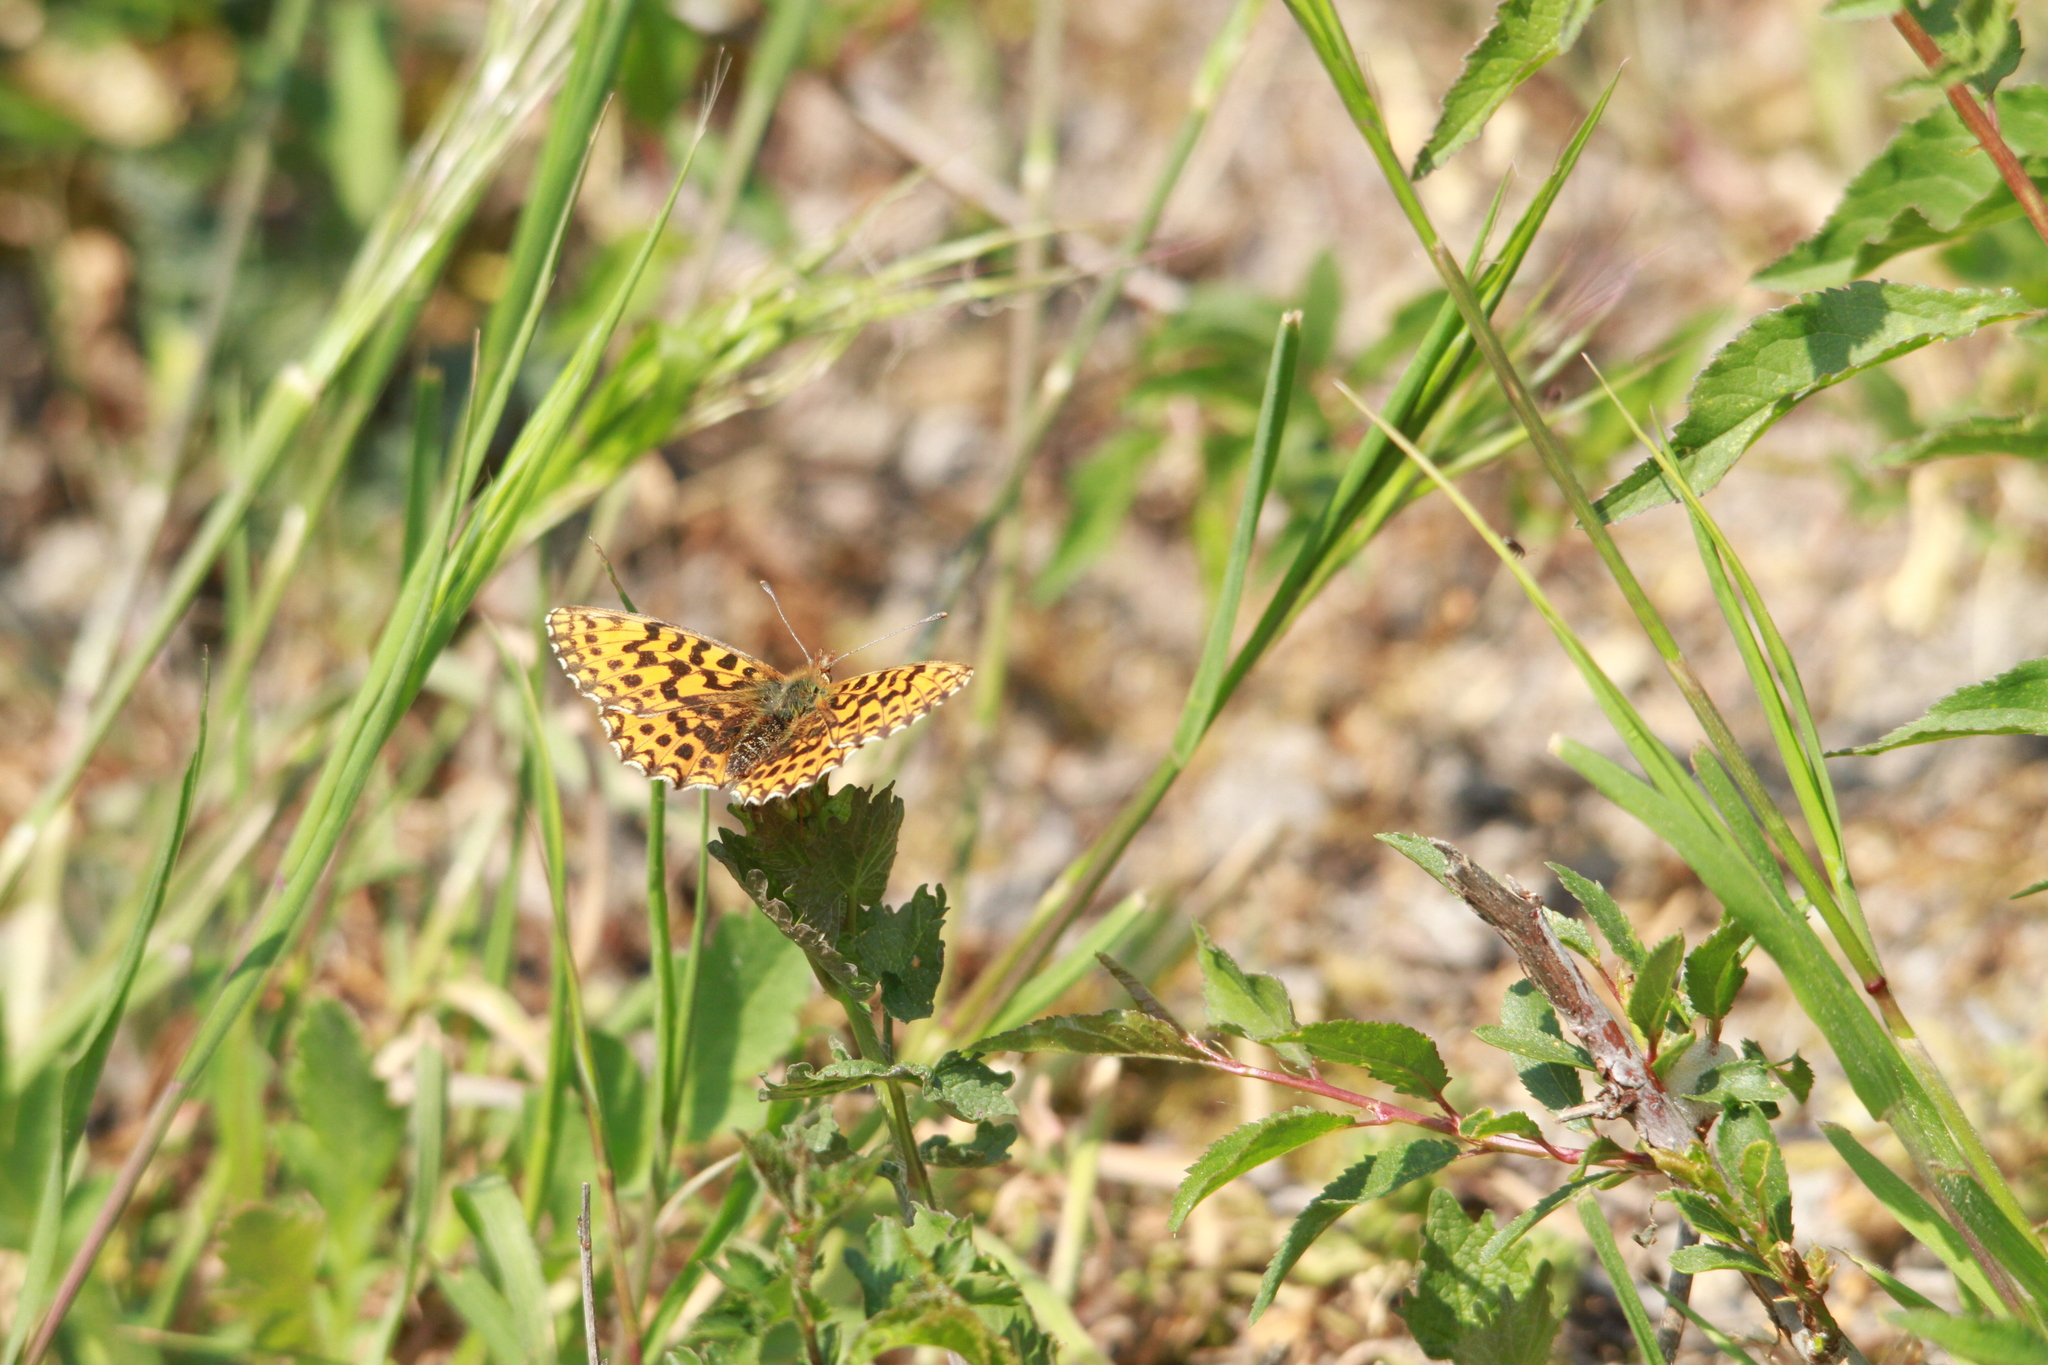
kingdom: Animalia
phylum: Arthropoda
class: Insecta
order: Lepidoptera
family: Nymphalidae
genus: Boloria
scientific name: Boloria dia
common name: Weaver's fritillary
